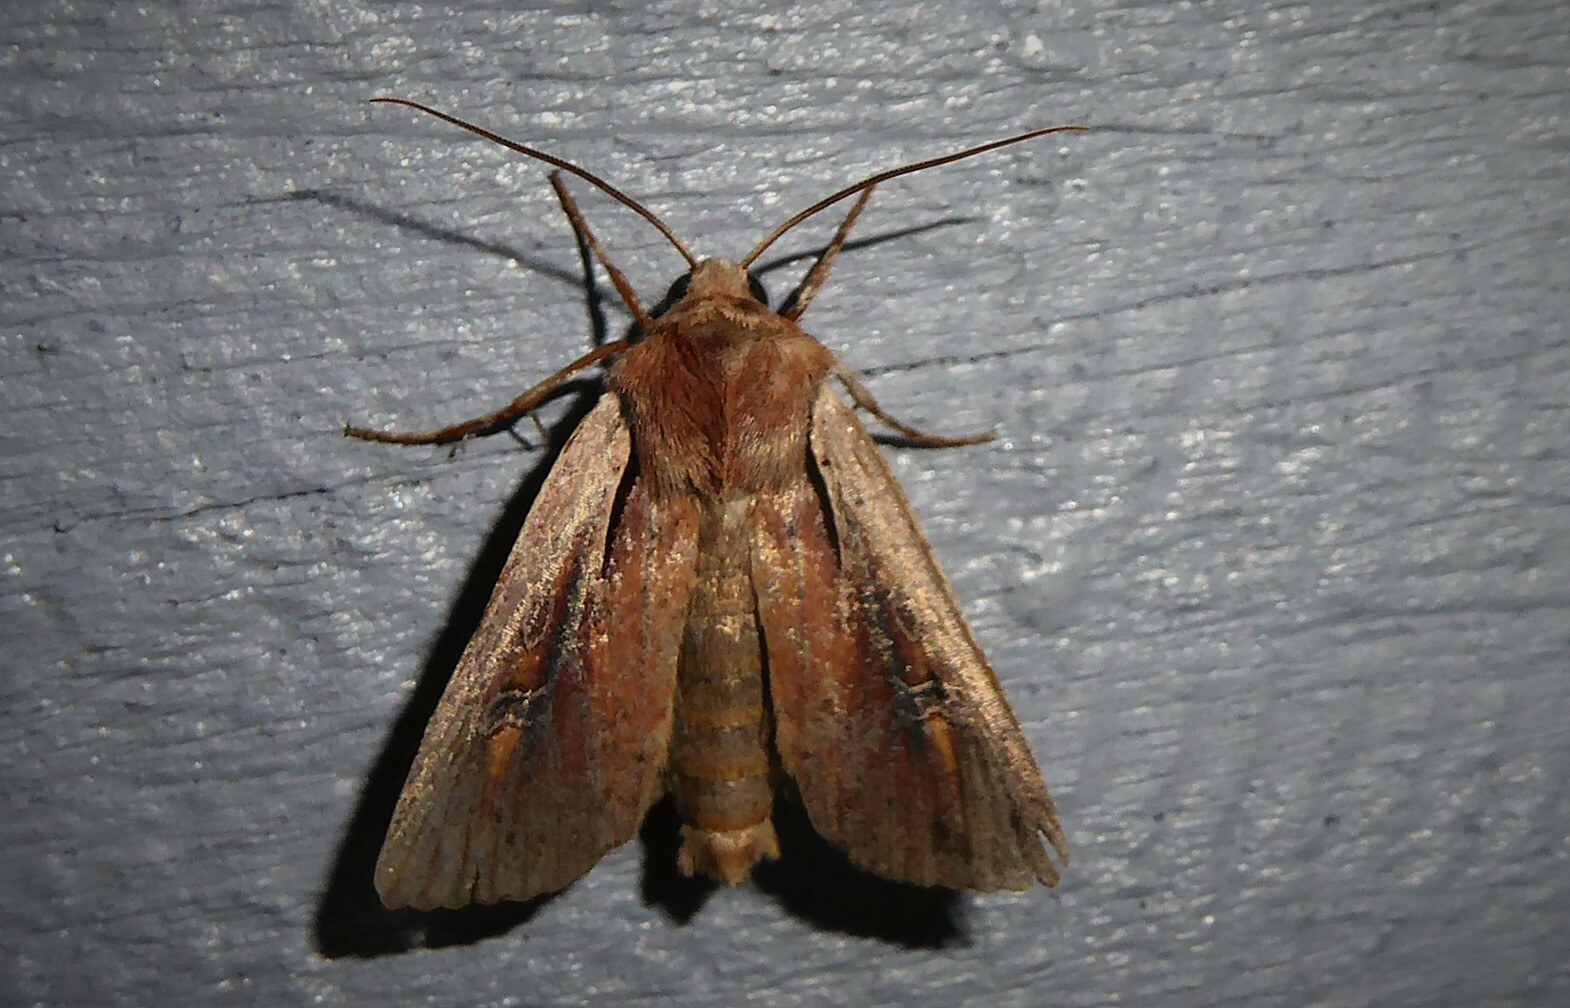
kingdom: Animalia
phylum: Arthropoda
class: Insecta
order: Lepidoptera
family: Noctuidae
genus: Ichneutica
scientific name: Ichneutica atristriga
